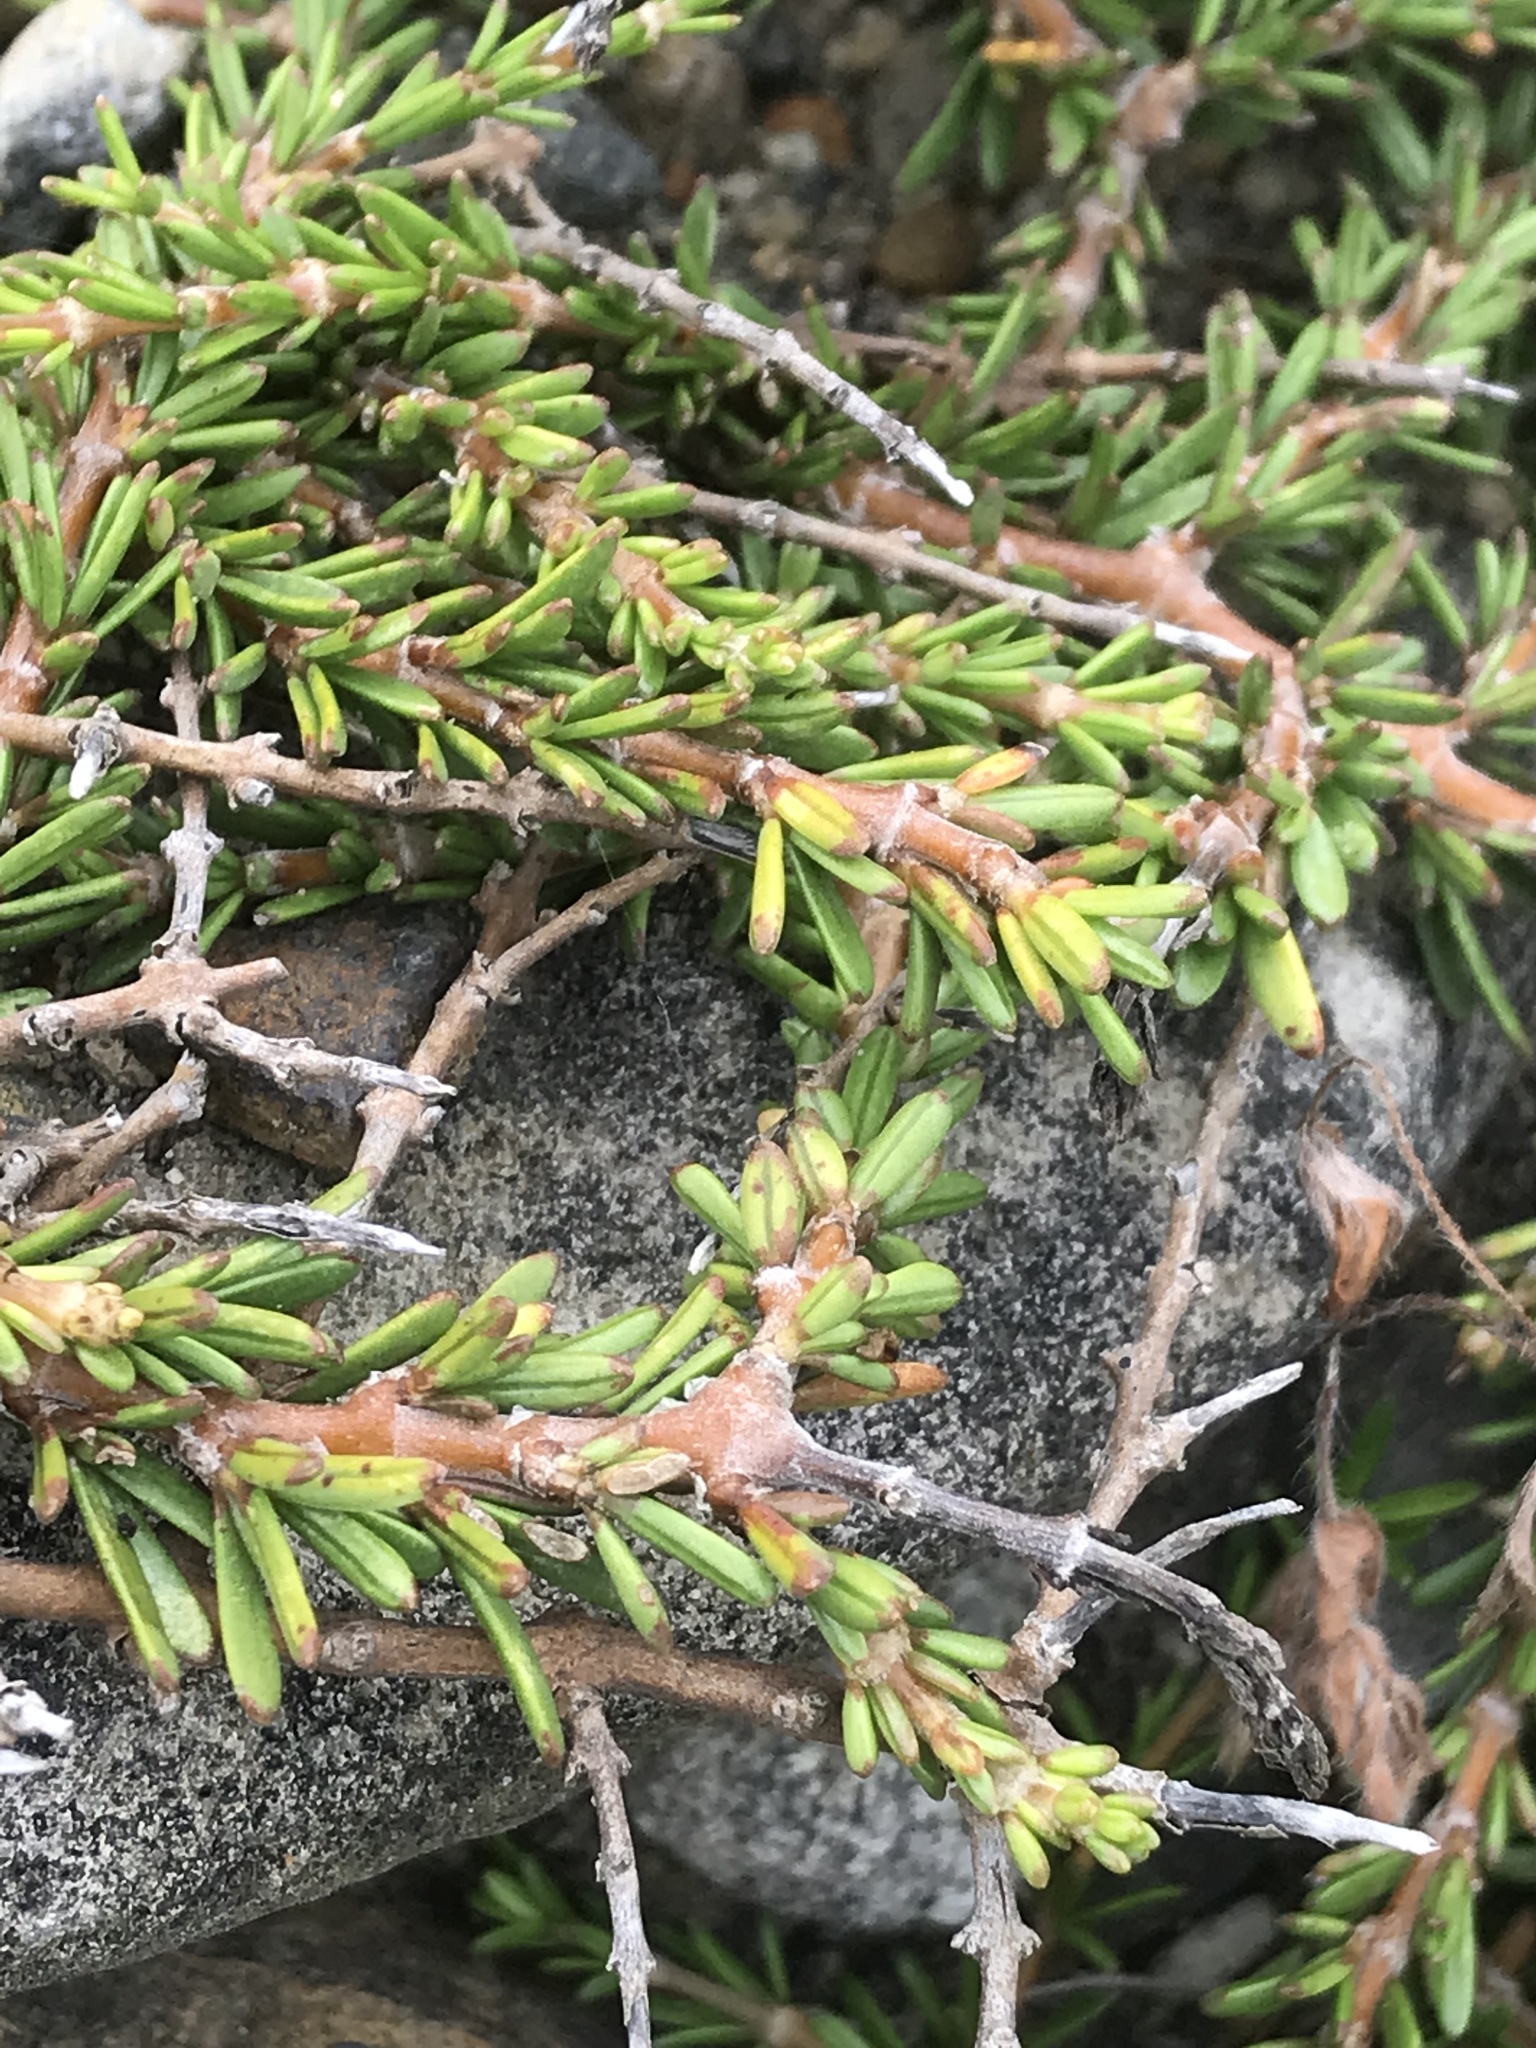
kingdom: Plantae
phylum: Tracheophyta
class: Magnoliopsida
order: Gentianales
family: Rubiaceae
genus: Coprosma
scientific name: Coprosma acerosa
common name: Sand coprosma
